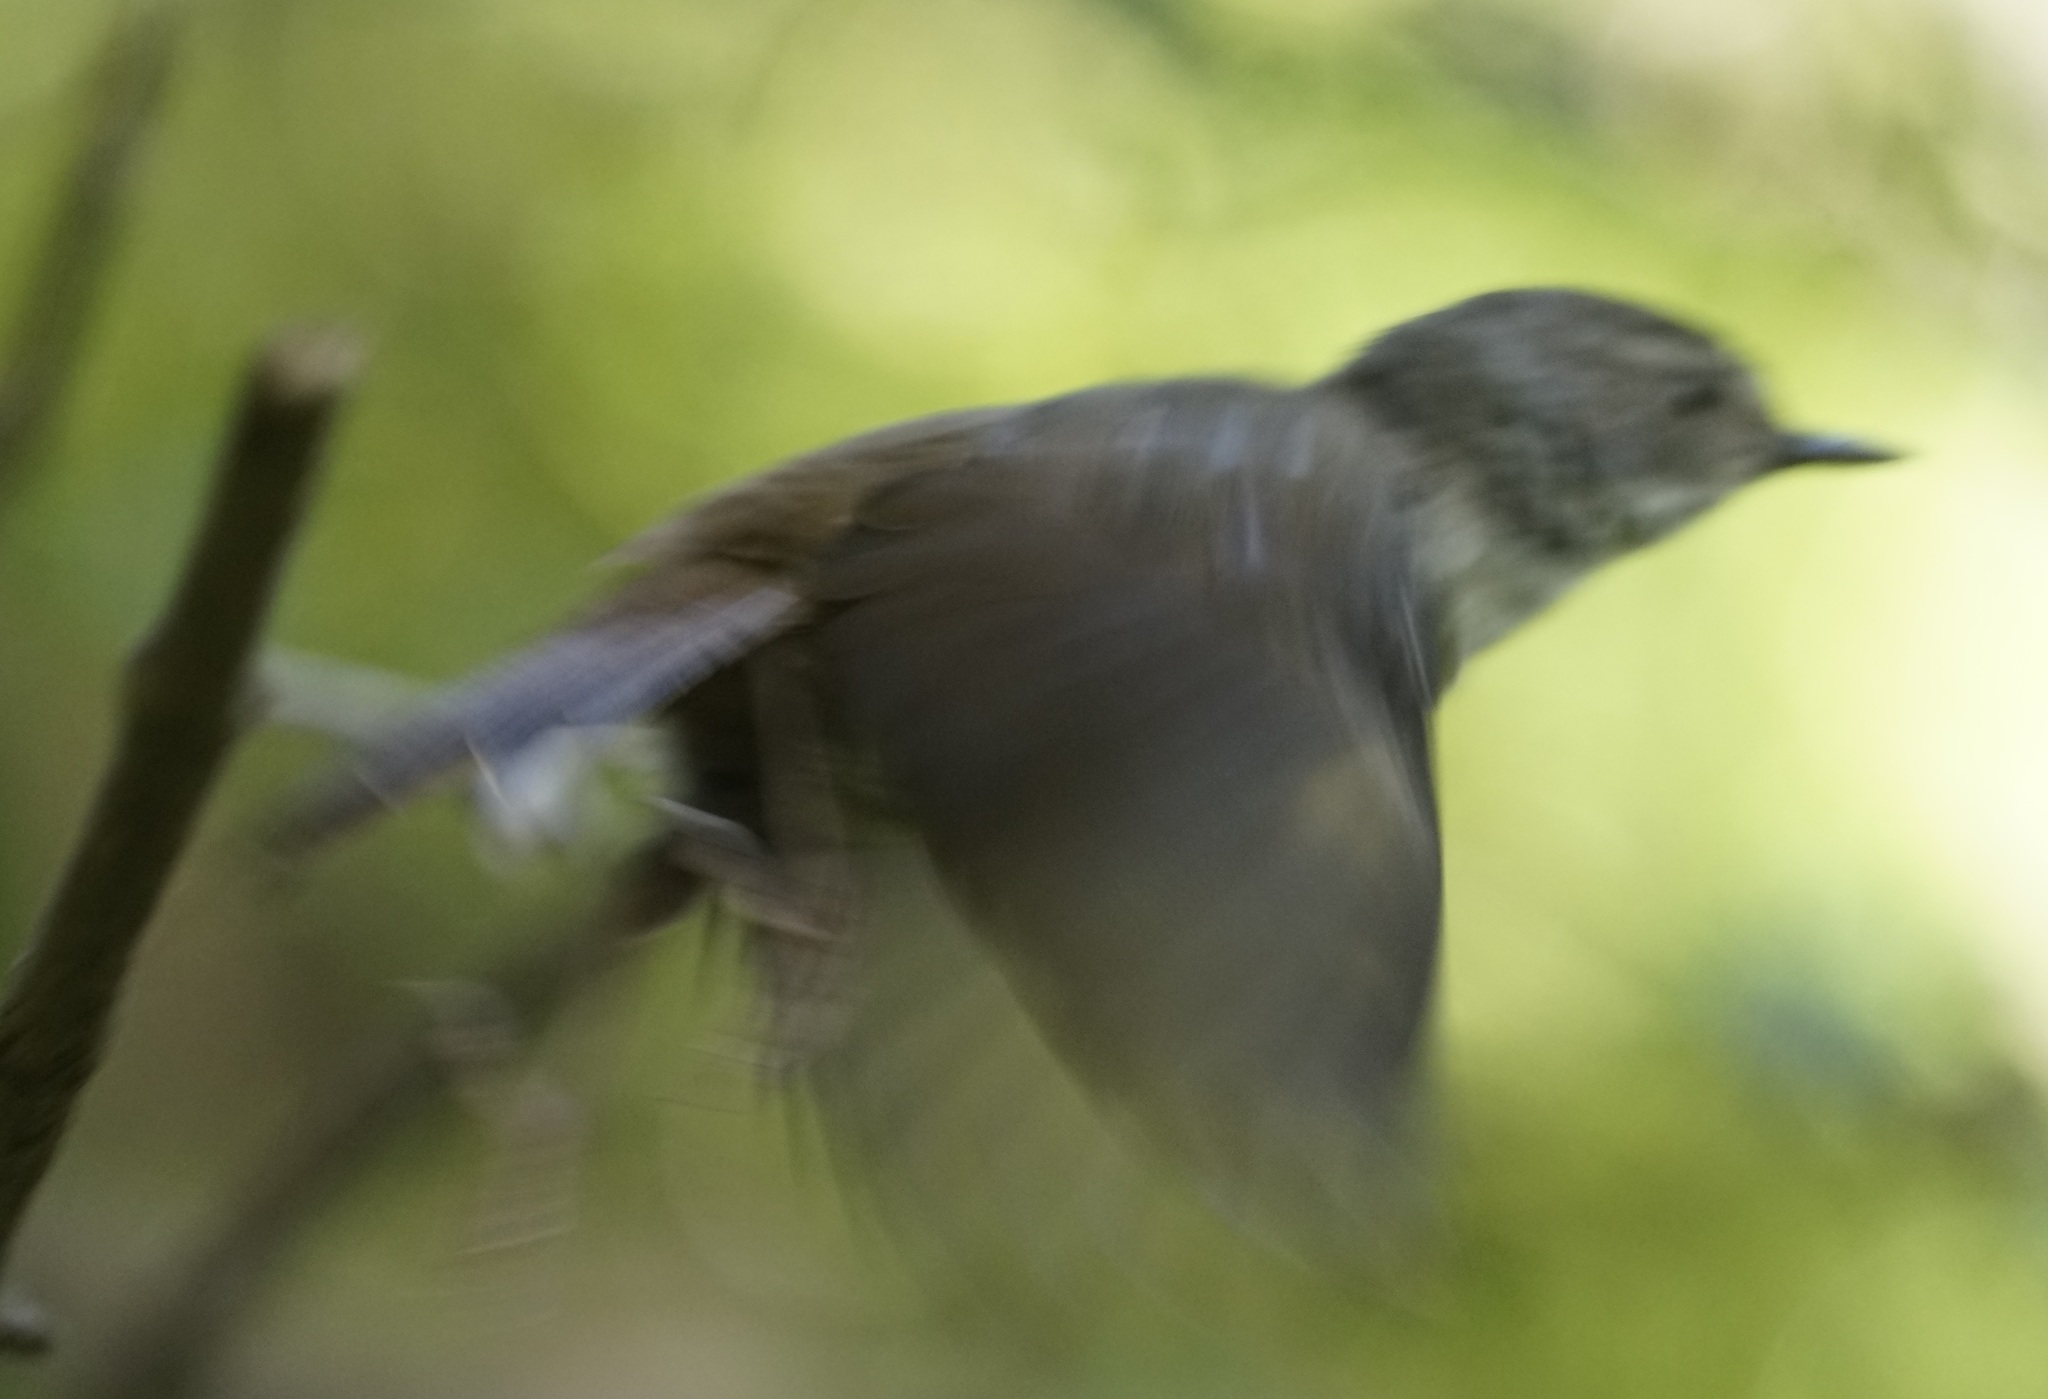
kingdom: Animalia
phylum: Chordata
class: Aves
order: Passeriformes
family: Acanthizidae
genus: Sericornis
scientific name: Sericornis frontalis
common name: White-browed scrubwren
